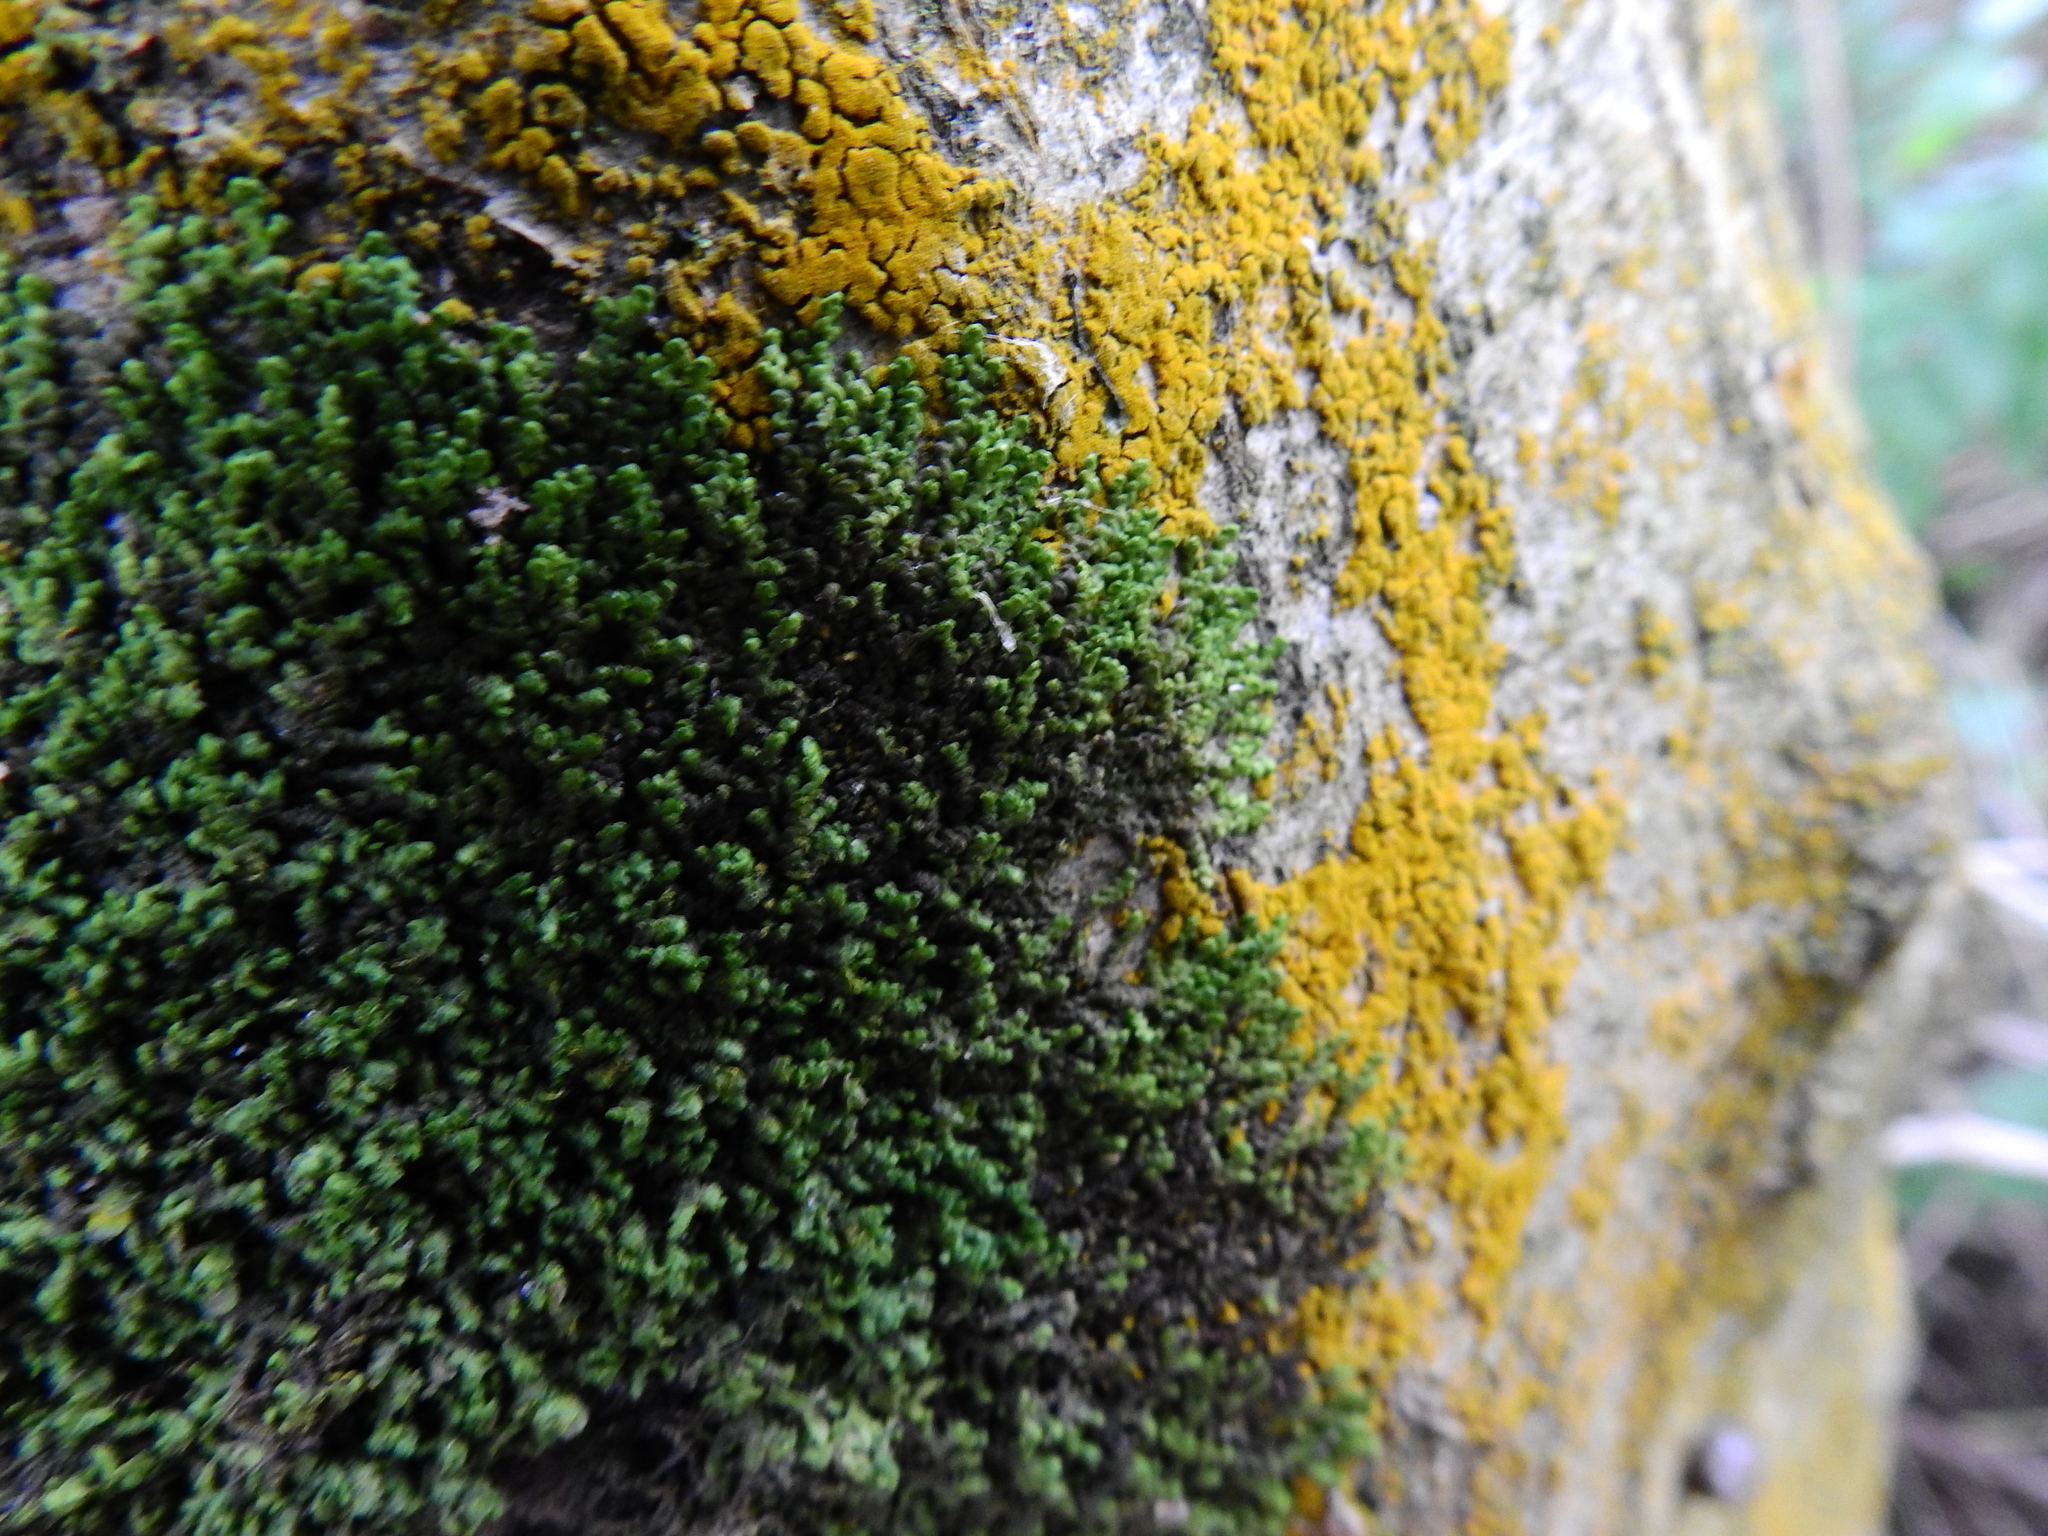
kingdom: Plantae
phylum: Marchantiophyta
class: Jungermanniopsida
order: Porellales
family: Frullaniaceae
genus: Frullania
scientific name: Frullania dilatata
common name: Dilated scalewort
